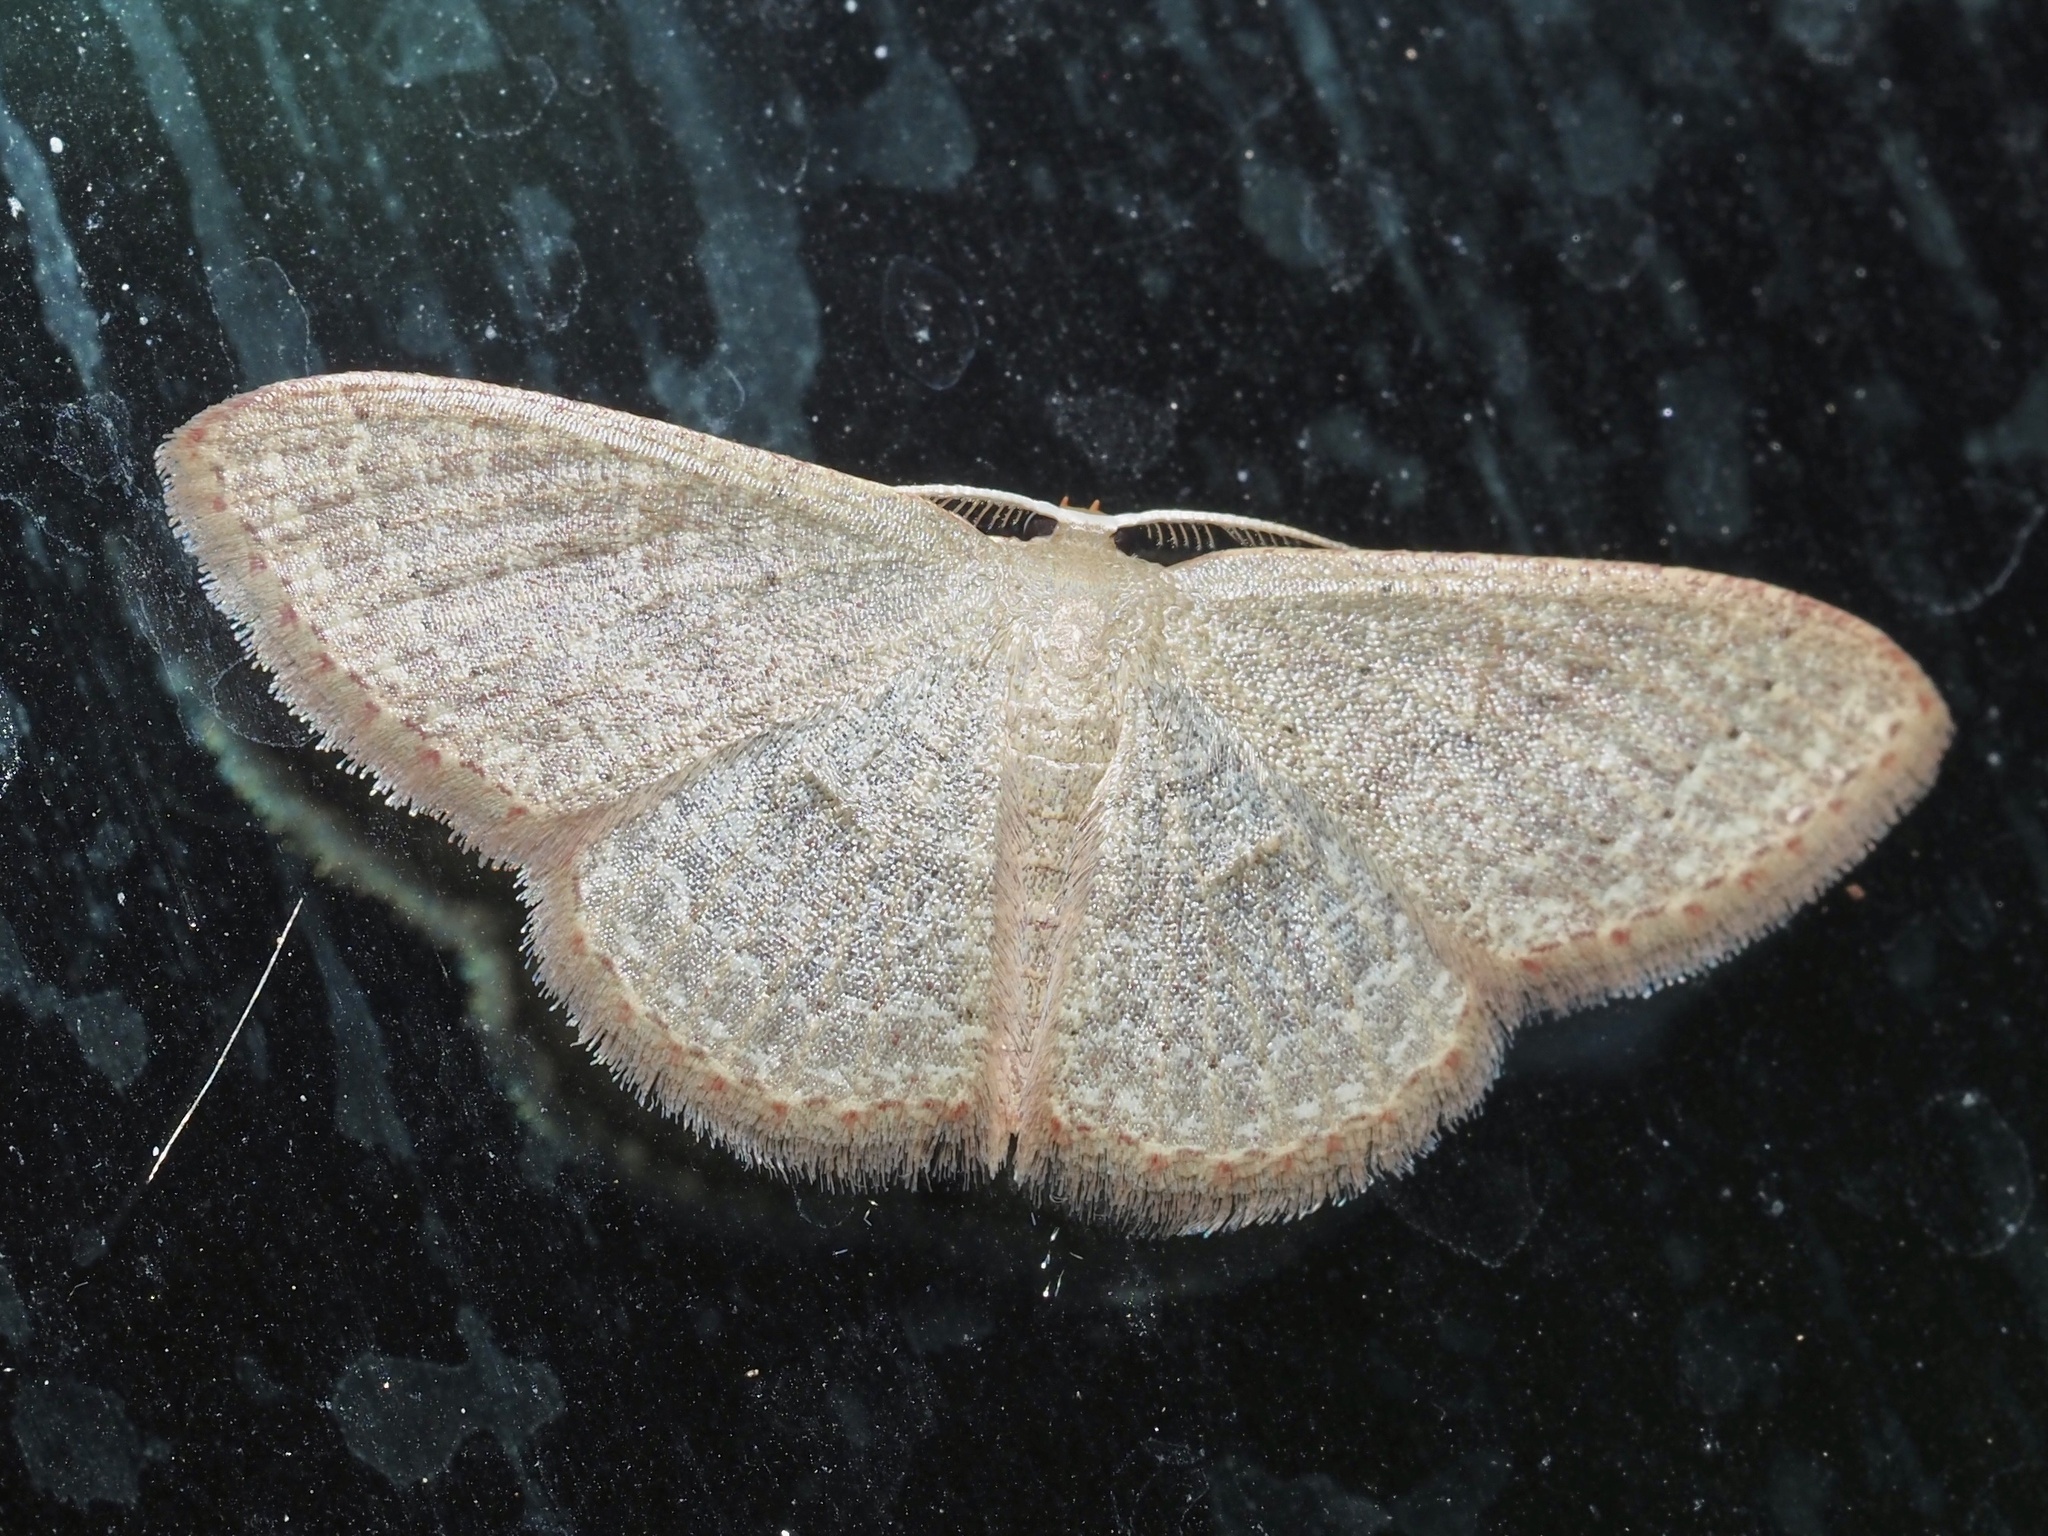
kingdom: Animalia
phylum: Arthropoda
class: Insecta
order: Lepidoptera
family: Geometridae
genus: Pleuroprucha
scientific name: Pleuroprucha insulsaria
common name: Common tan wave
